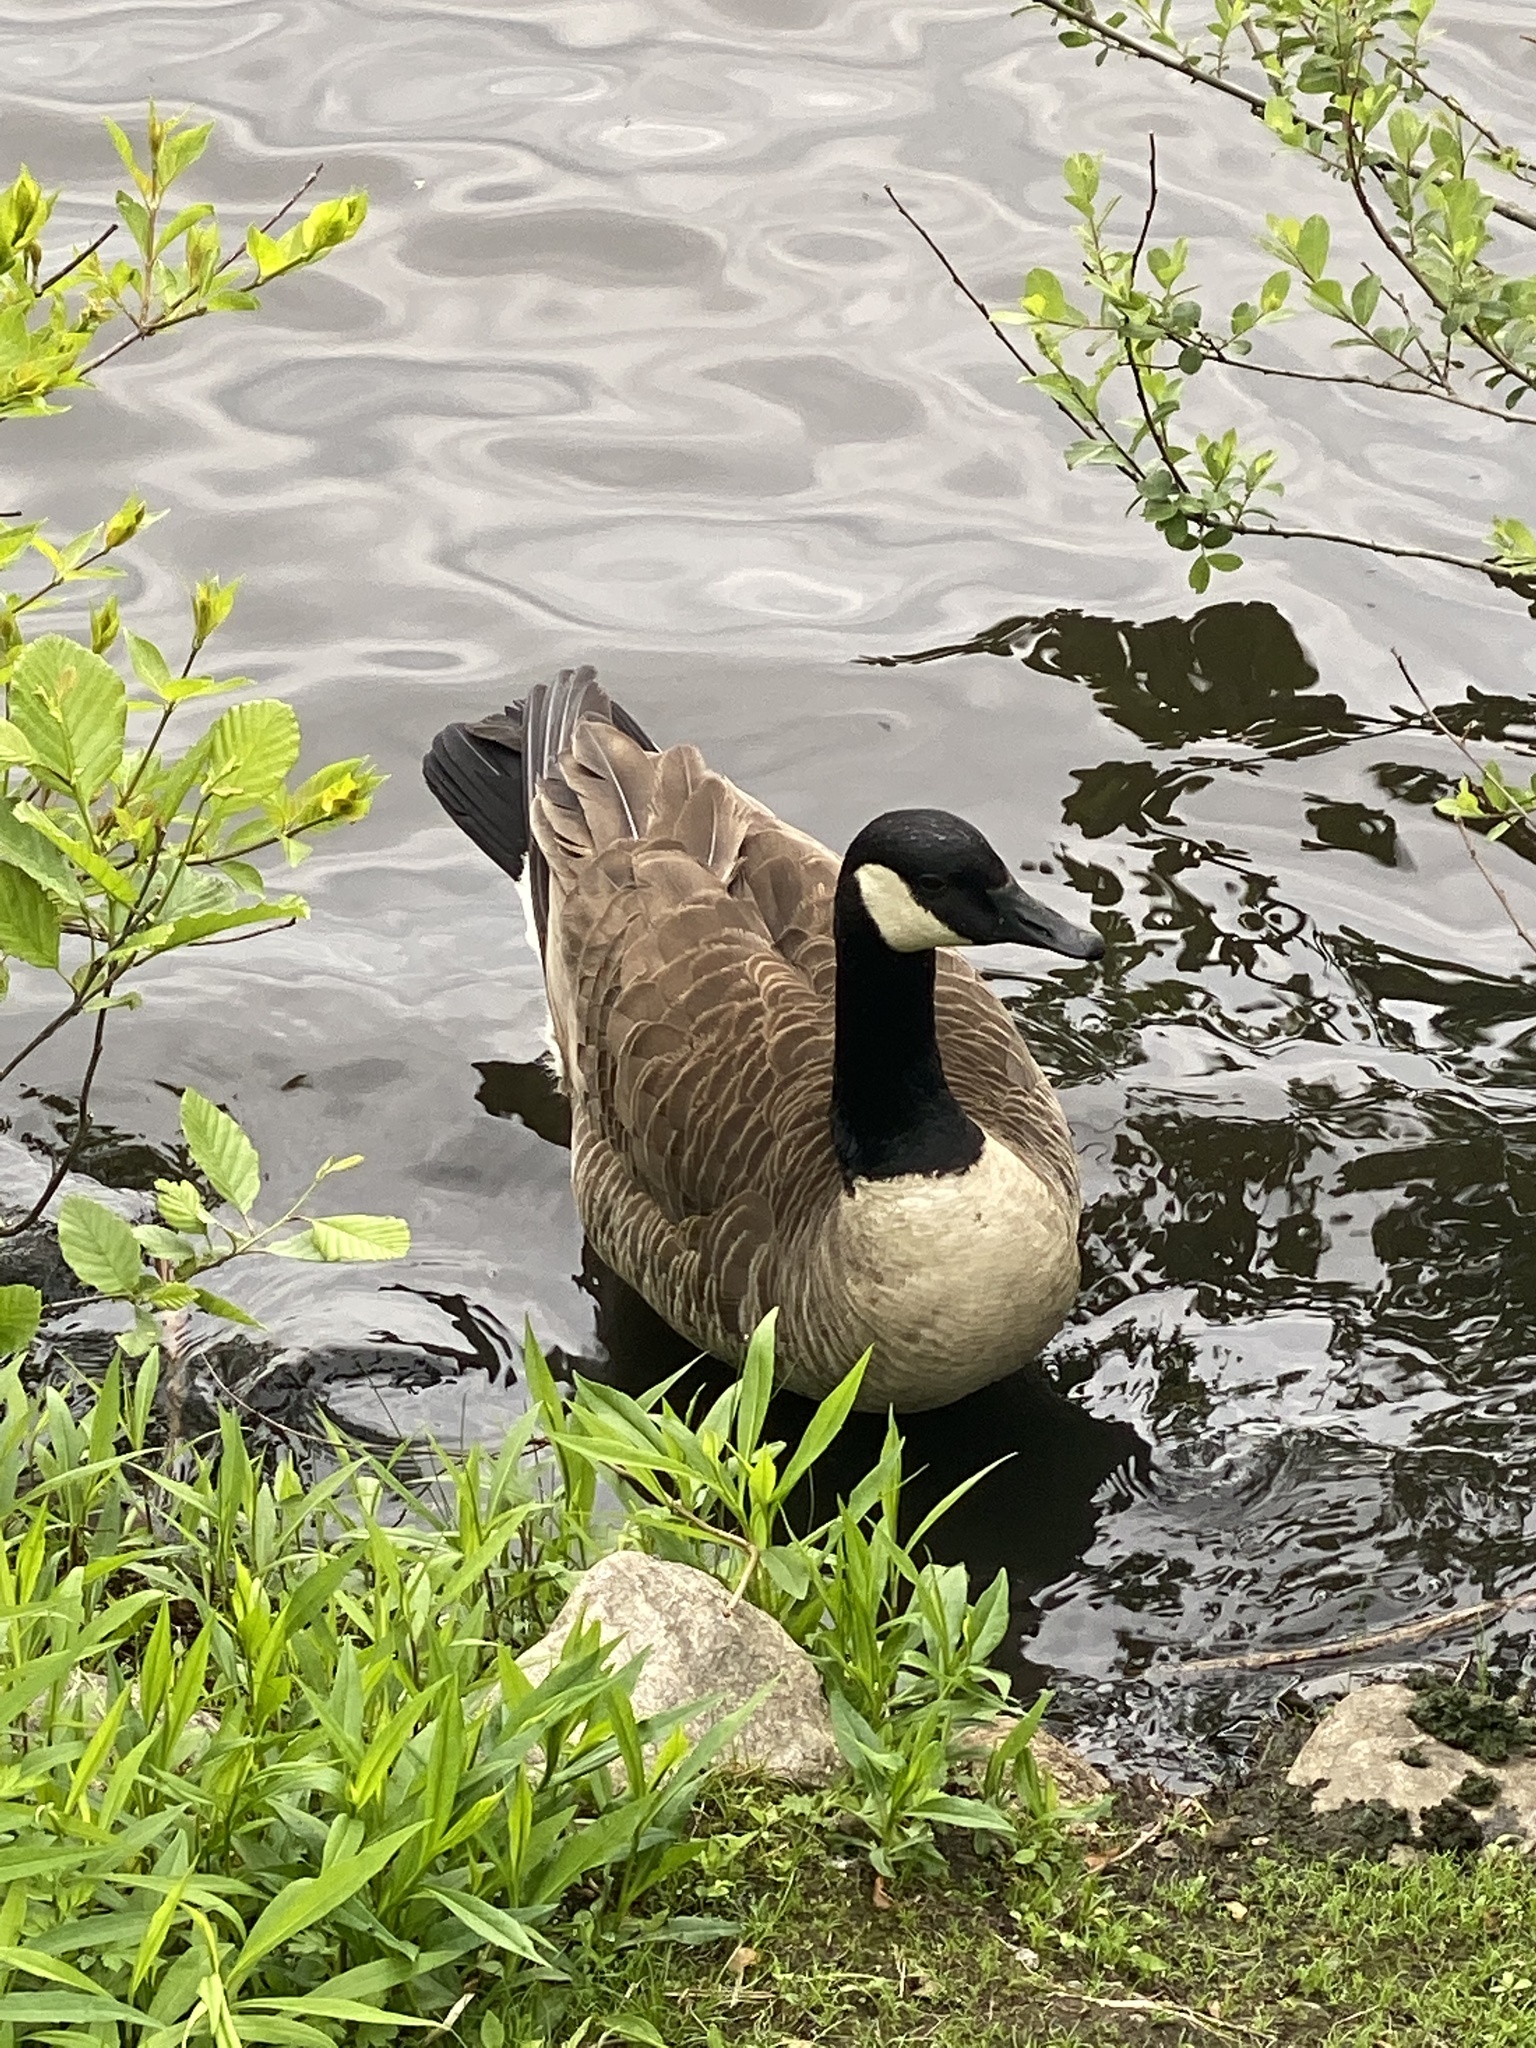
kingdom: Animalia
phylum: Chordata
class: Aves
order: Anseriformes
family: Anatidae
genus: Branta
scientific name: Branta canadensis
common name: Canada goose
